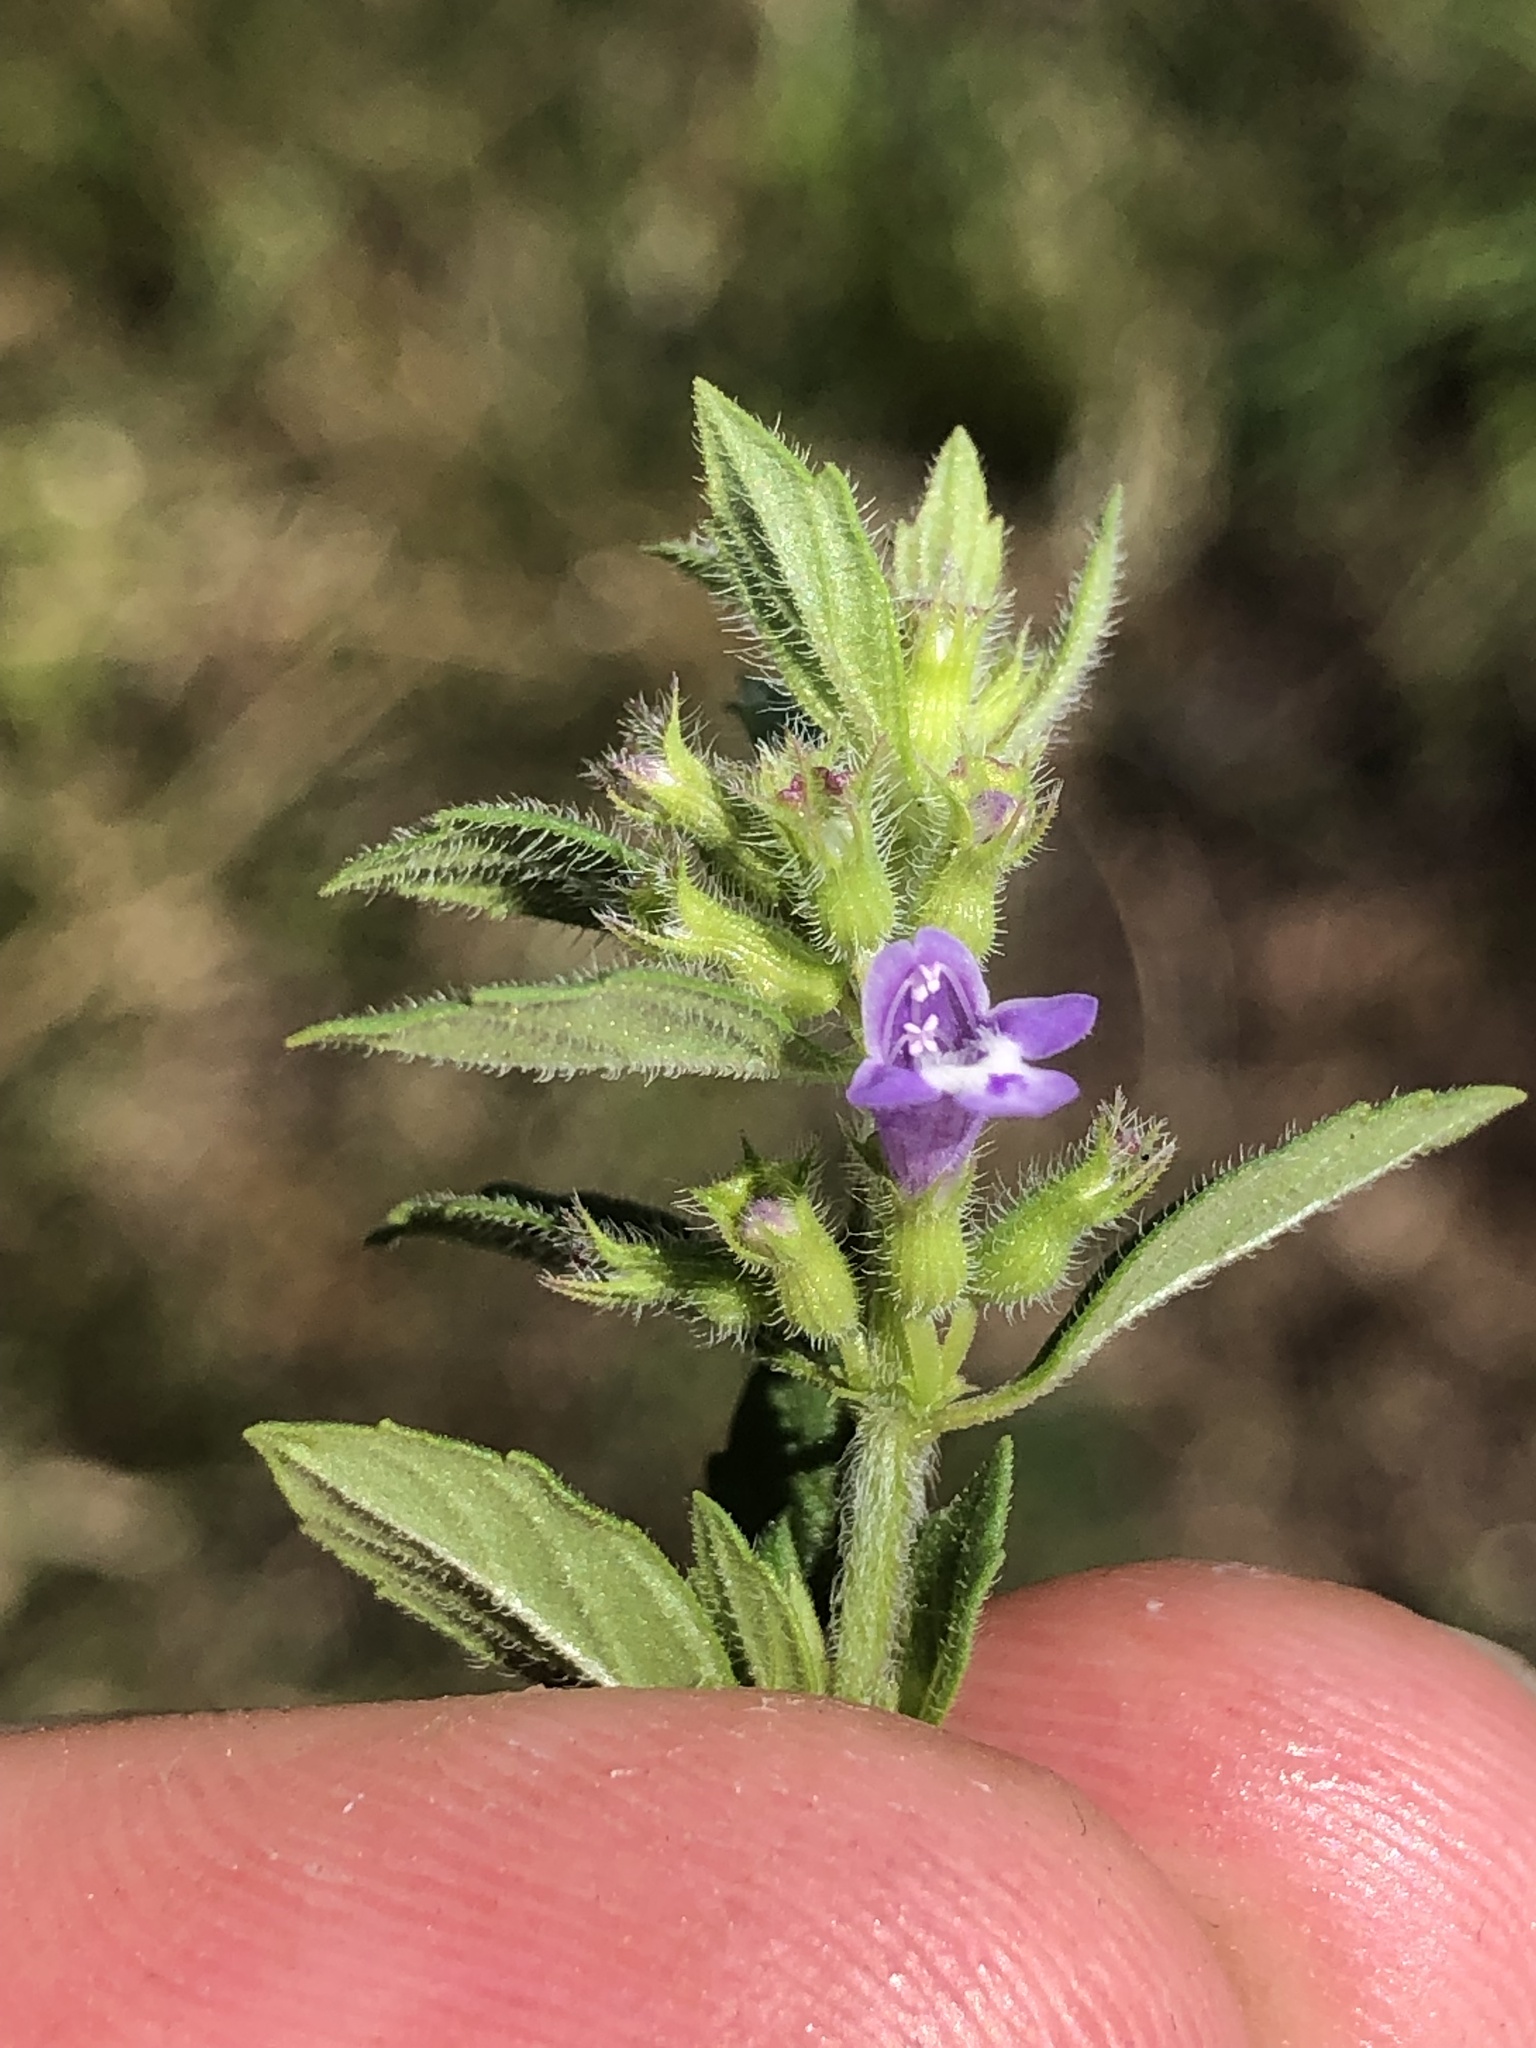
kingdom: Plantae
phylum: Tracheophyta
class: Magnoliopsida
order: Lamiales
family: Lamiaceae
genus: Clinopodium
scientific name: Clinopodium acinos
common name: Basil thyme
